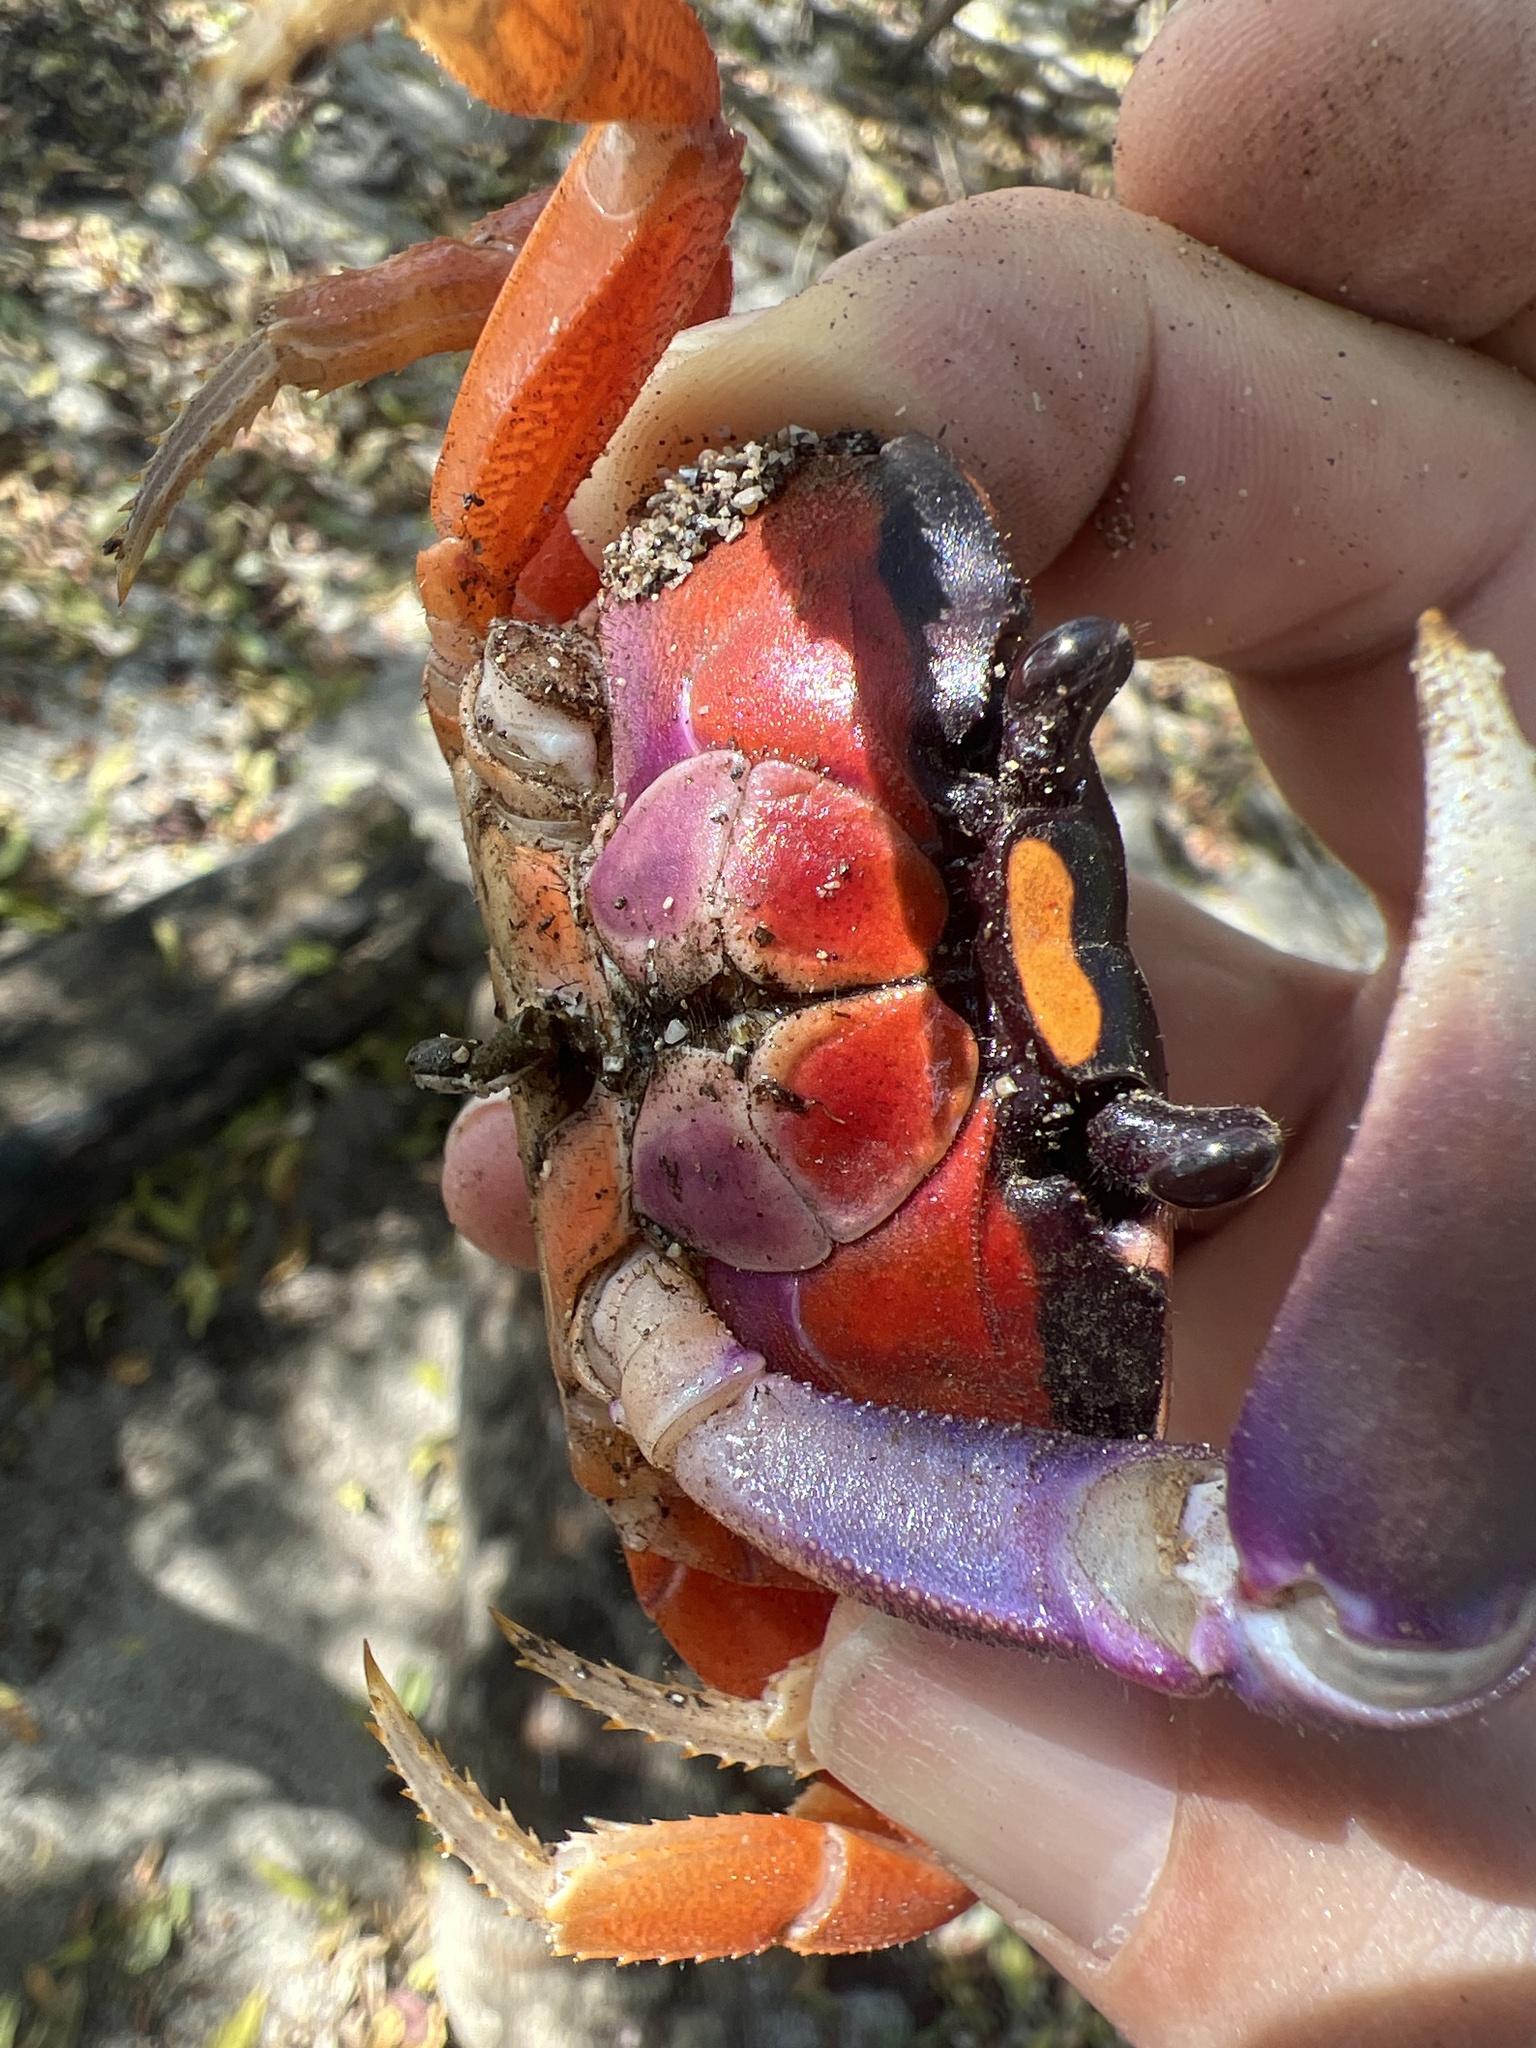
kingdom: Animalia
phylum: Arthropoda
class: Malacostraca
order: Decapoda
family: Gecarcinidae
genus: Gecarcinus
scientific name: Gecarcinus quadratus
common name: Halloween crab
